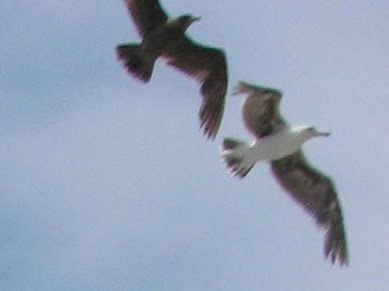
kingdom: Animalia
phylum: Chordata
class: Aves
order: Charadriiformes
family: Laridae
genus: Larus
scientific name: Larus
